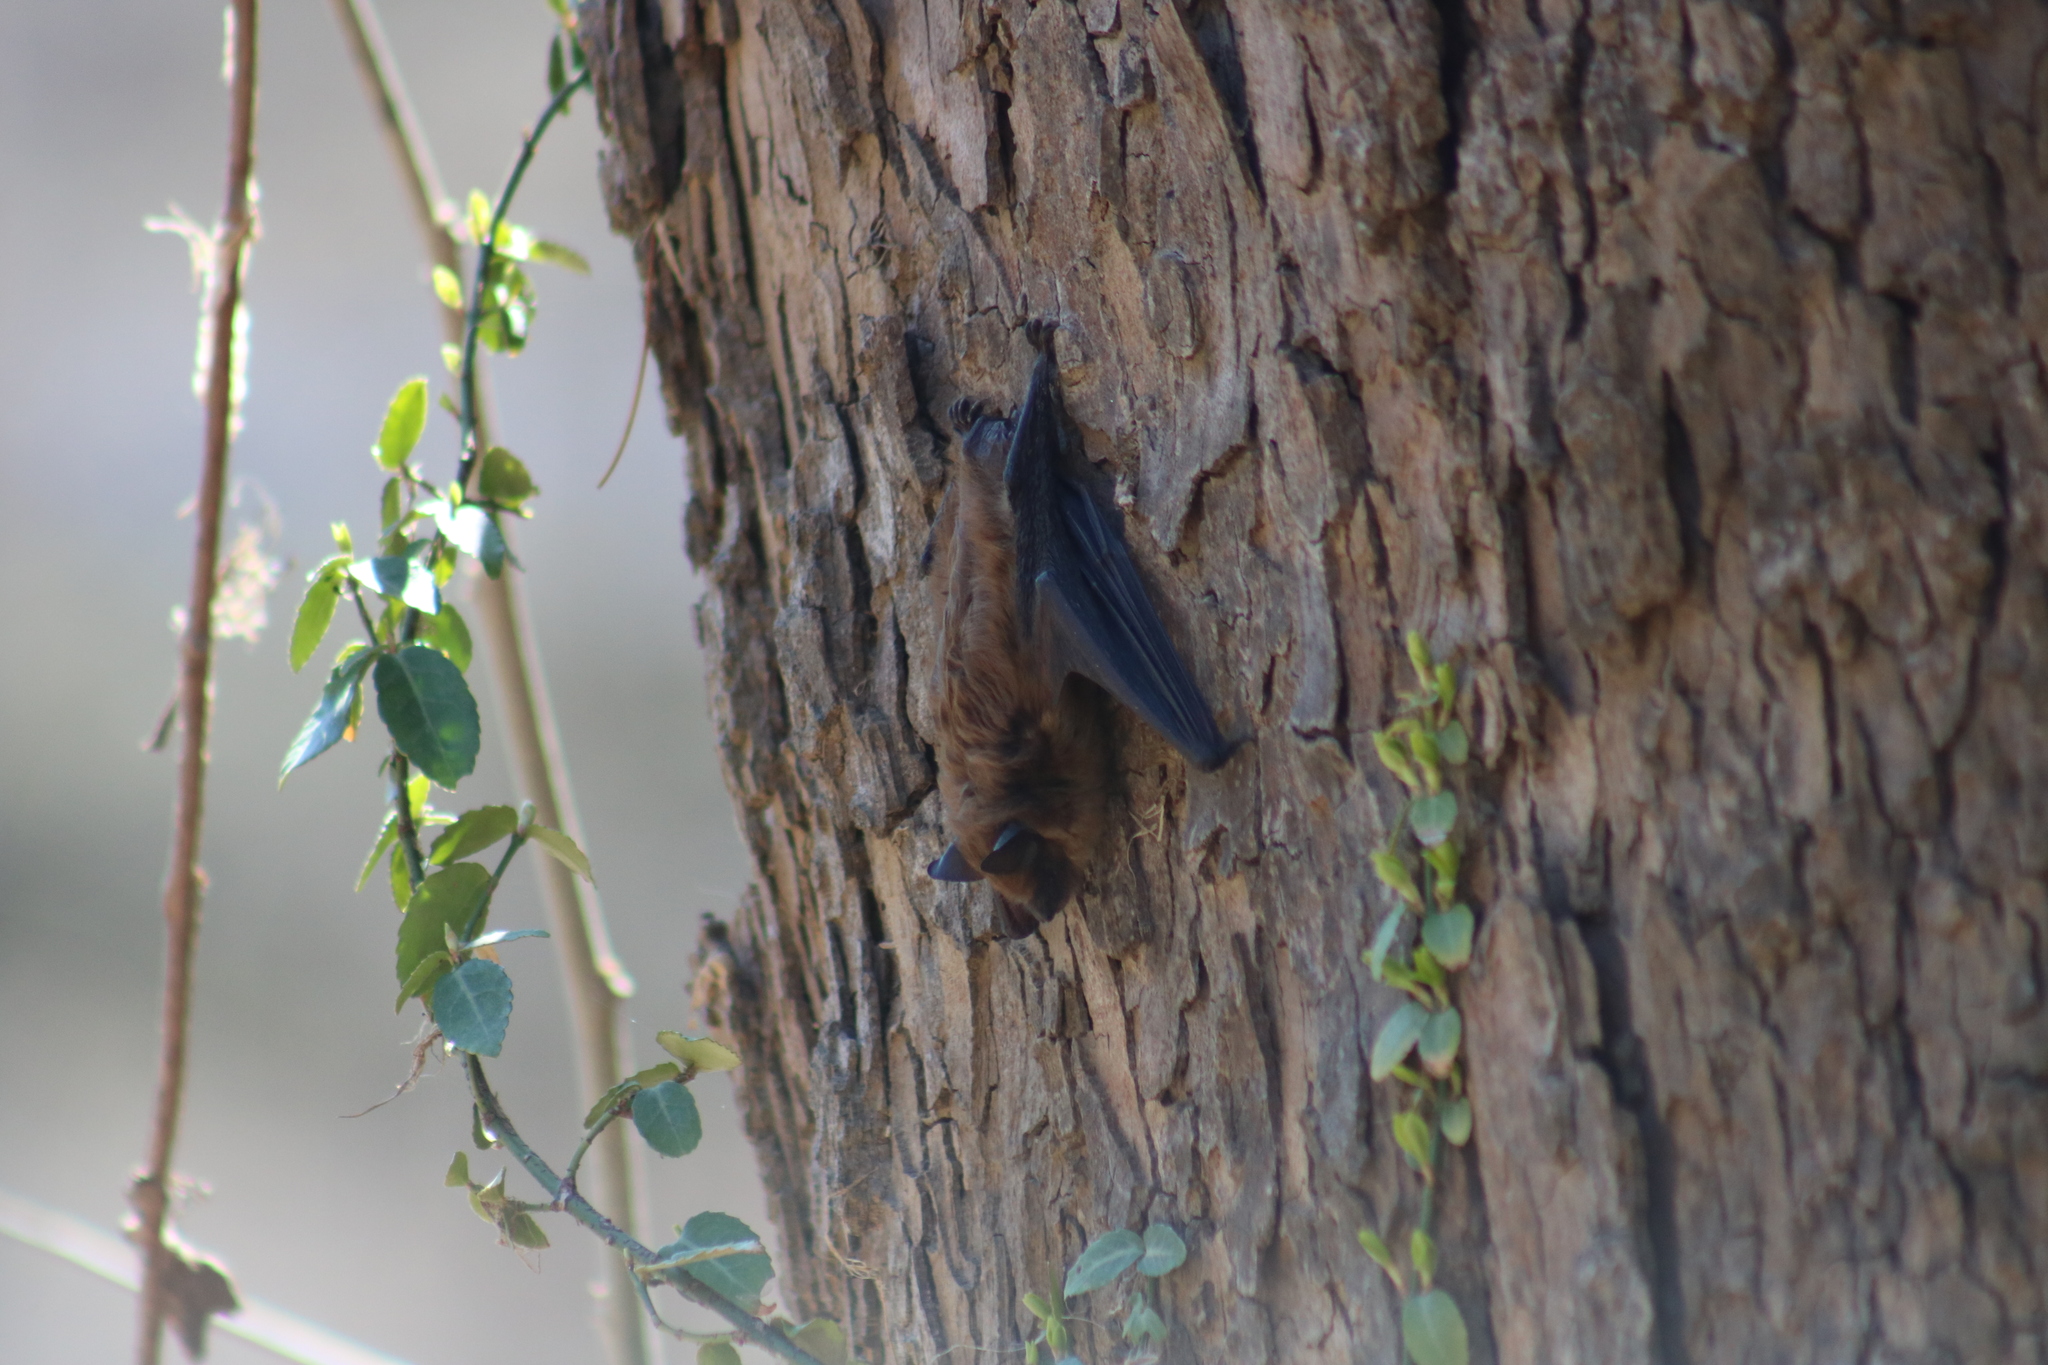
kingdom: Animalia
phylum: Chordata
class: Mammalia
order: Chiroptera
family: Vespertilionidae
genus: Eptesicus
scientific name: Eptesicus fuscus
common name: Big brown bat
